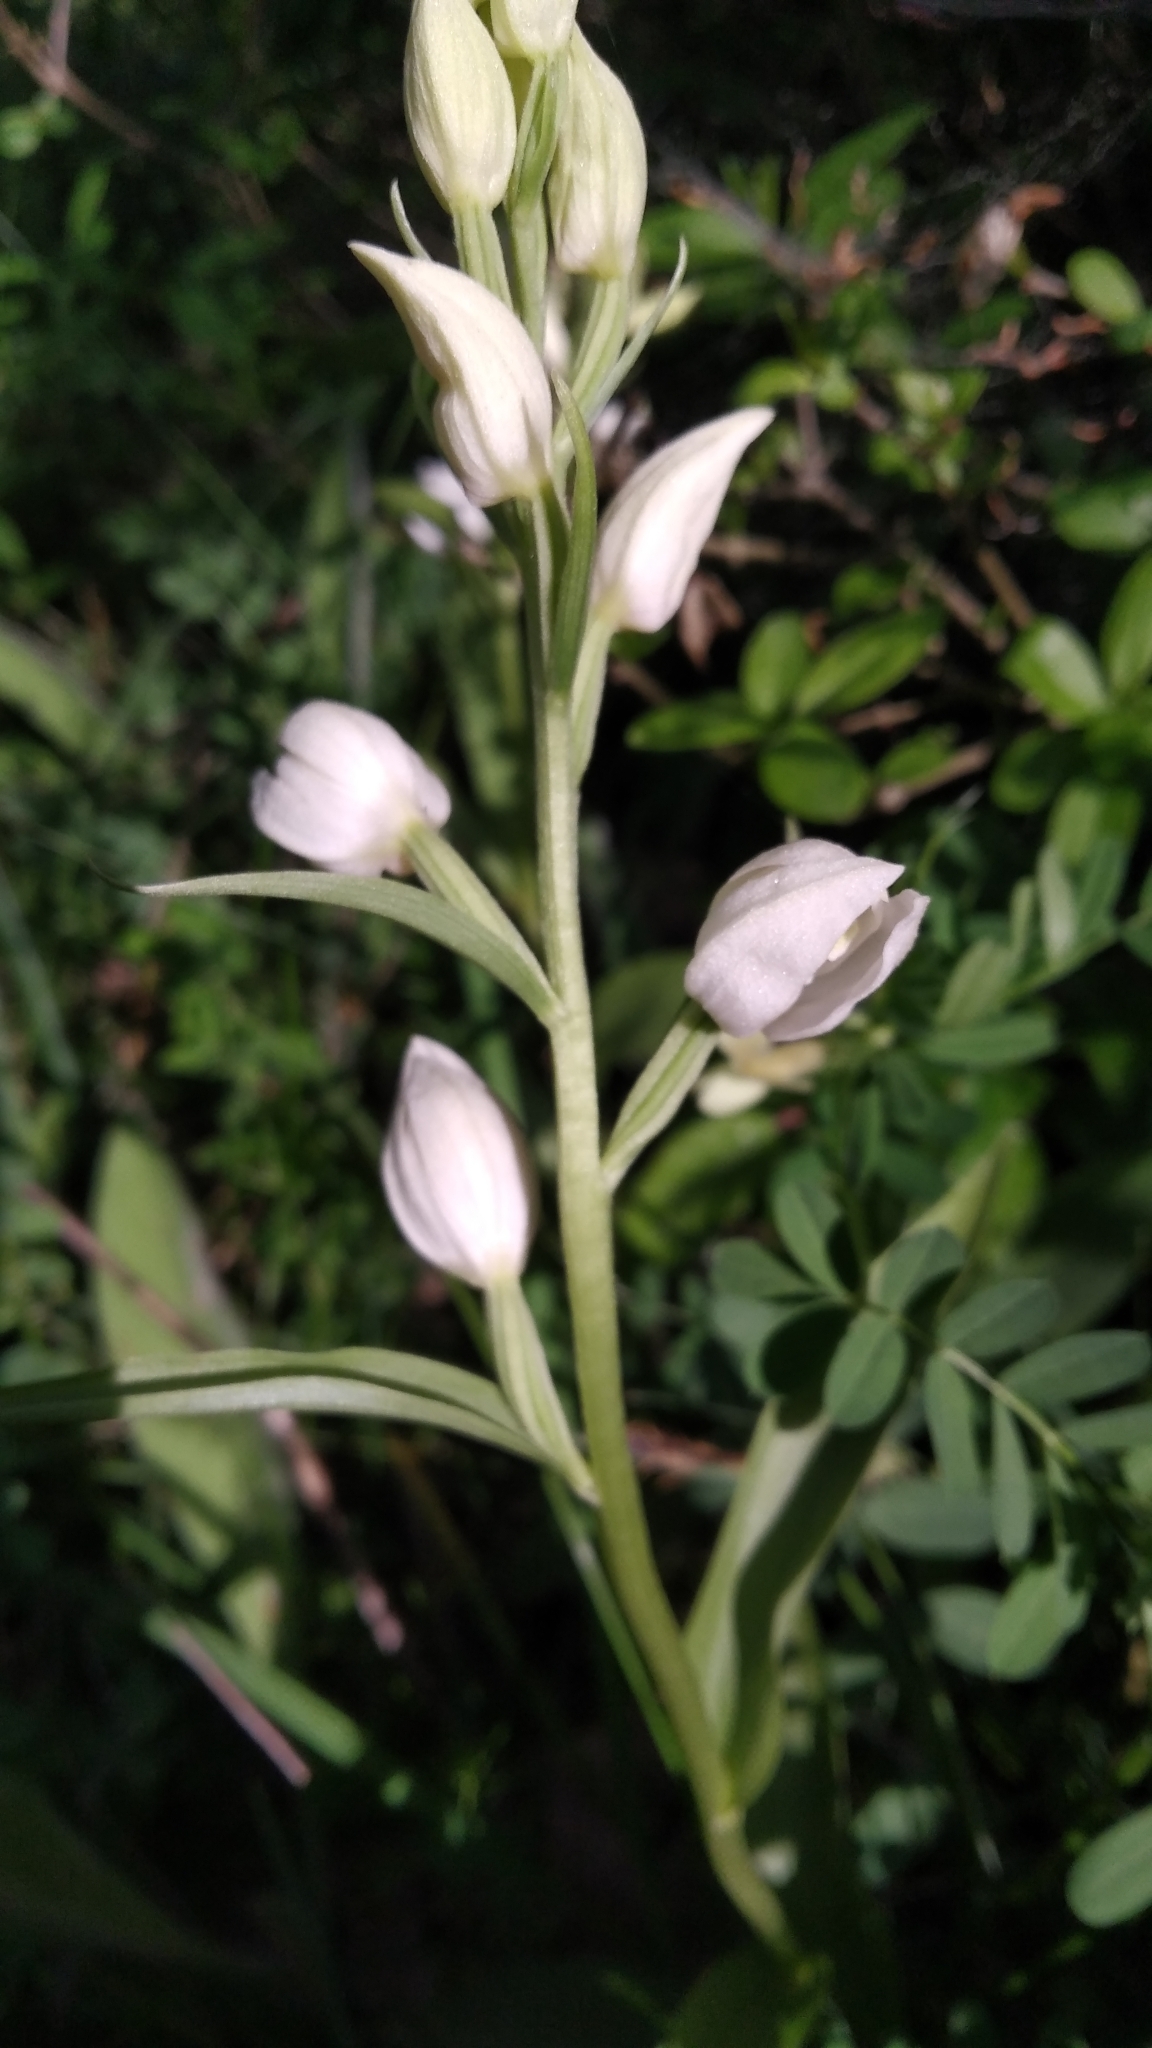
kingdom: Plantae
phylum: Tracheophyta
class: Liliopsida
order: Asparagales
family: Orchidaceae
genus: Cephalanthera
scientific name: Cephalanthera damasonium
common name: White helleborine
